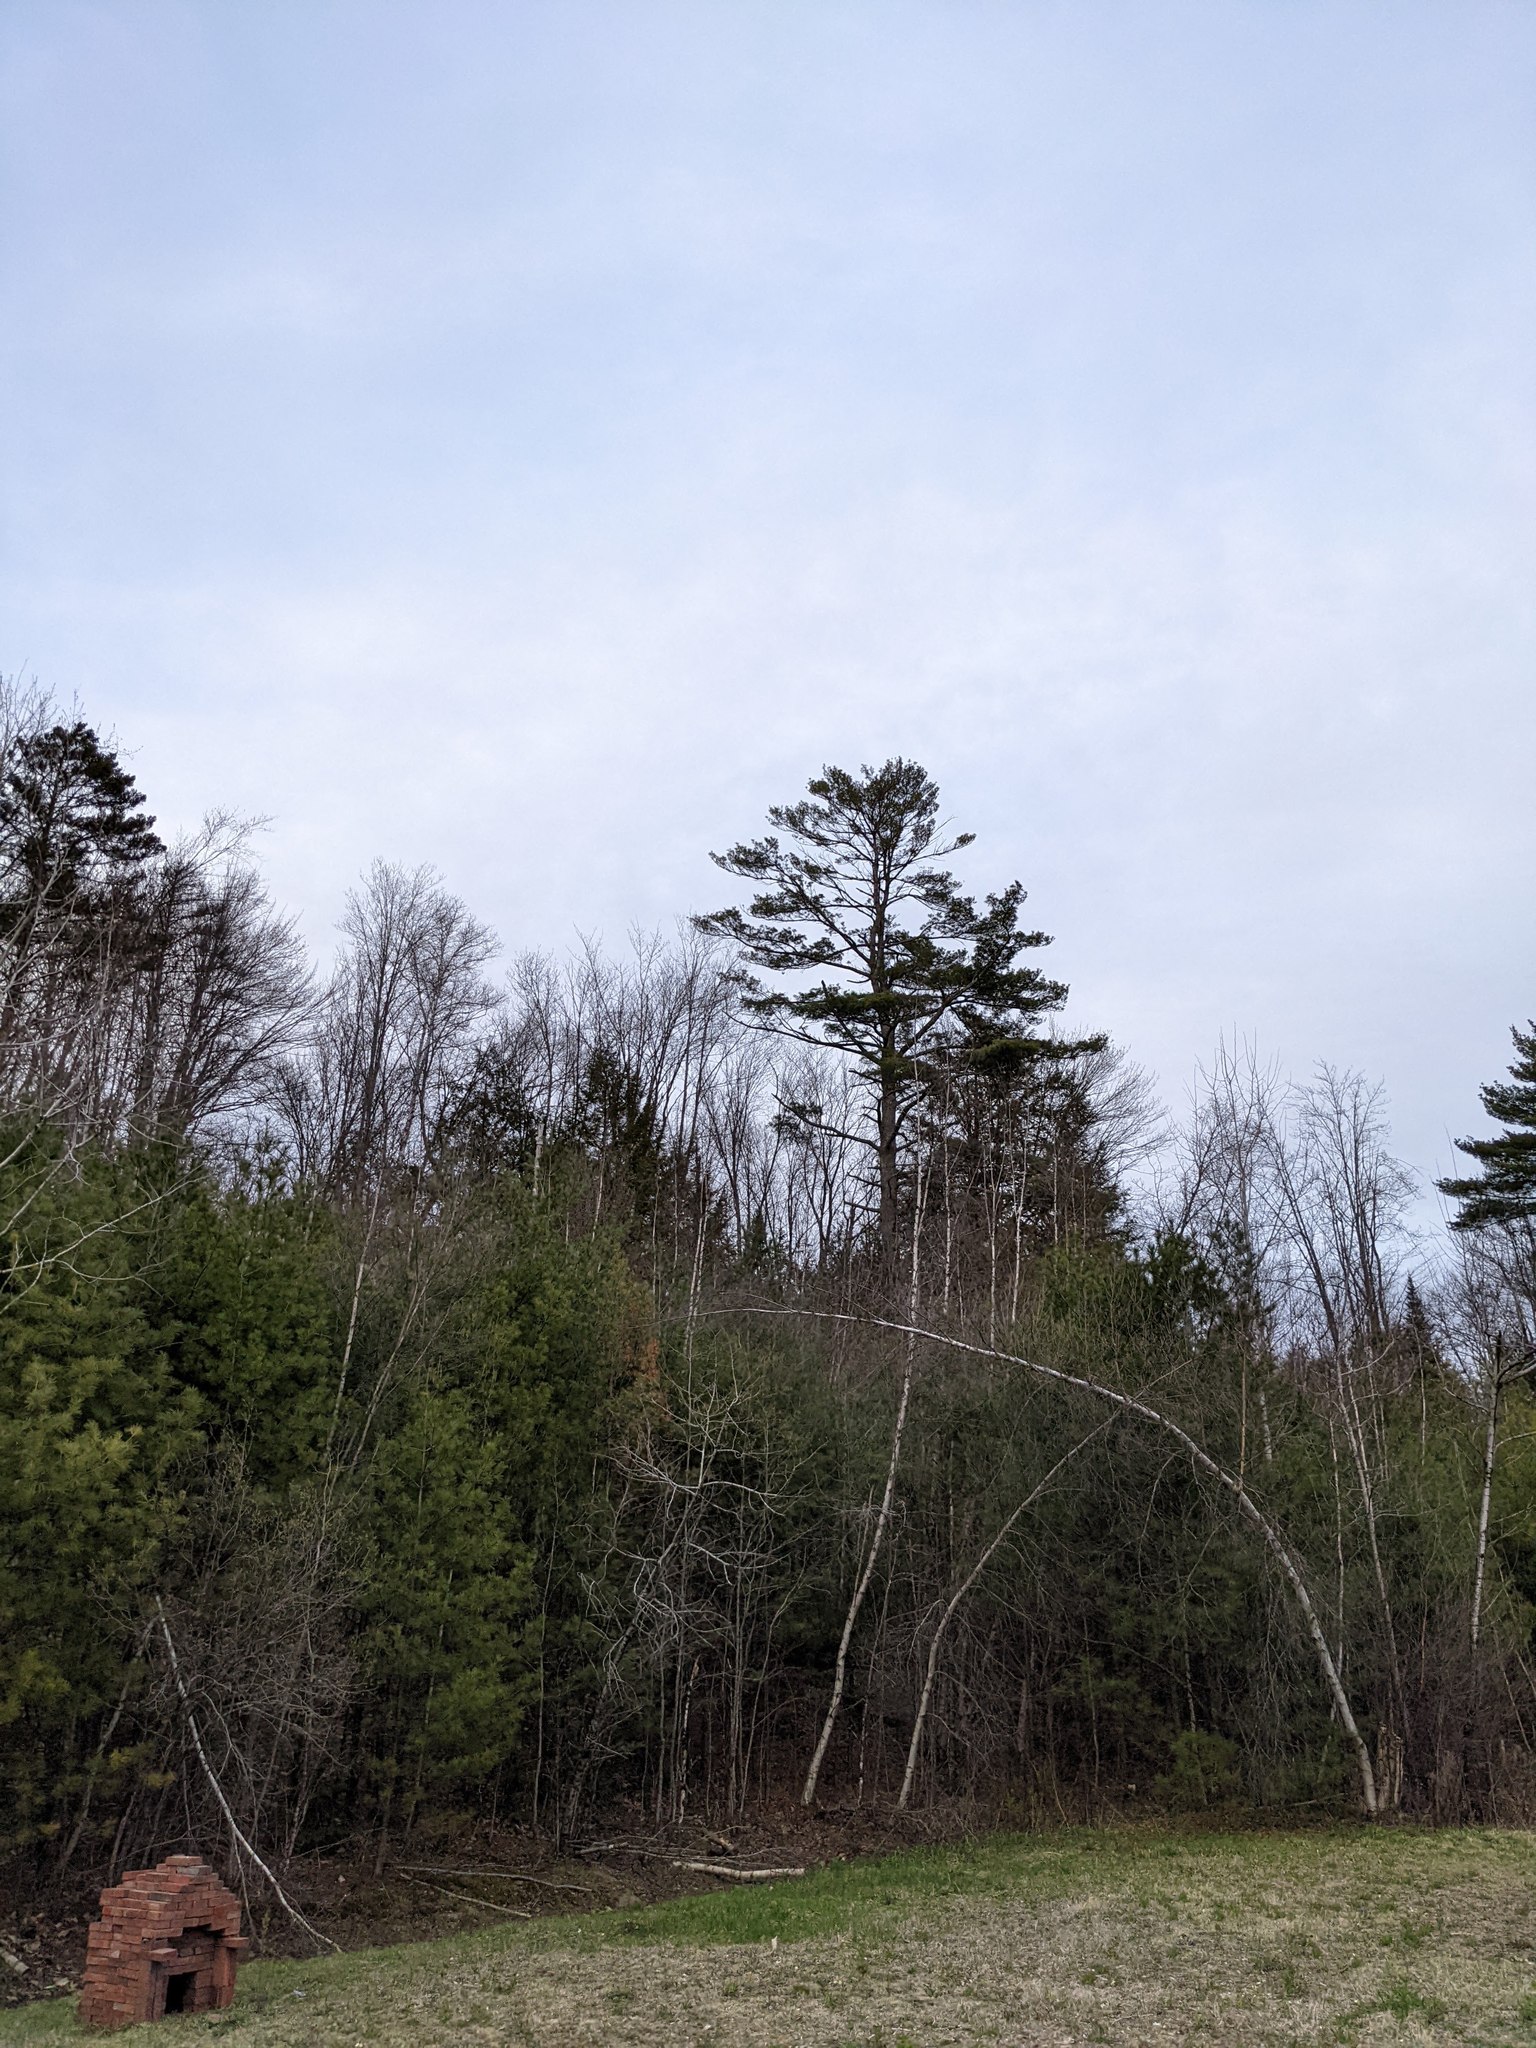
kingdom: Plantae
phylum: Tracheophyta
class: Pinopsida
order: Pinales
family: Pinaceae
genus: Pinus
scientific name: Pinus strobus
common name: Weymouth pine
